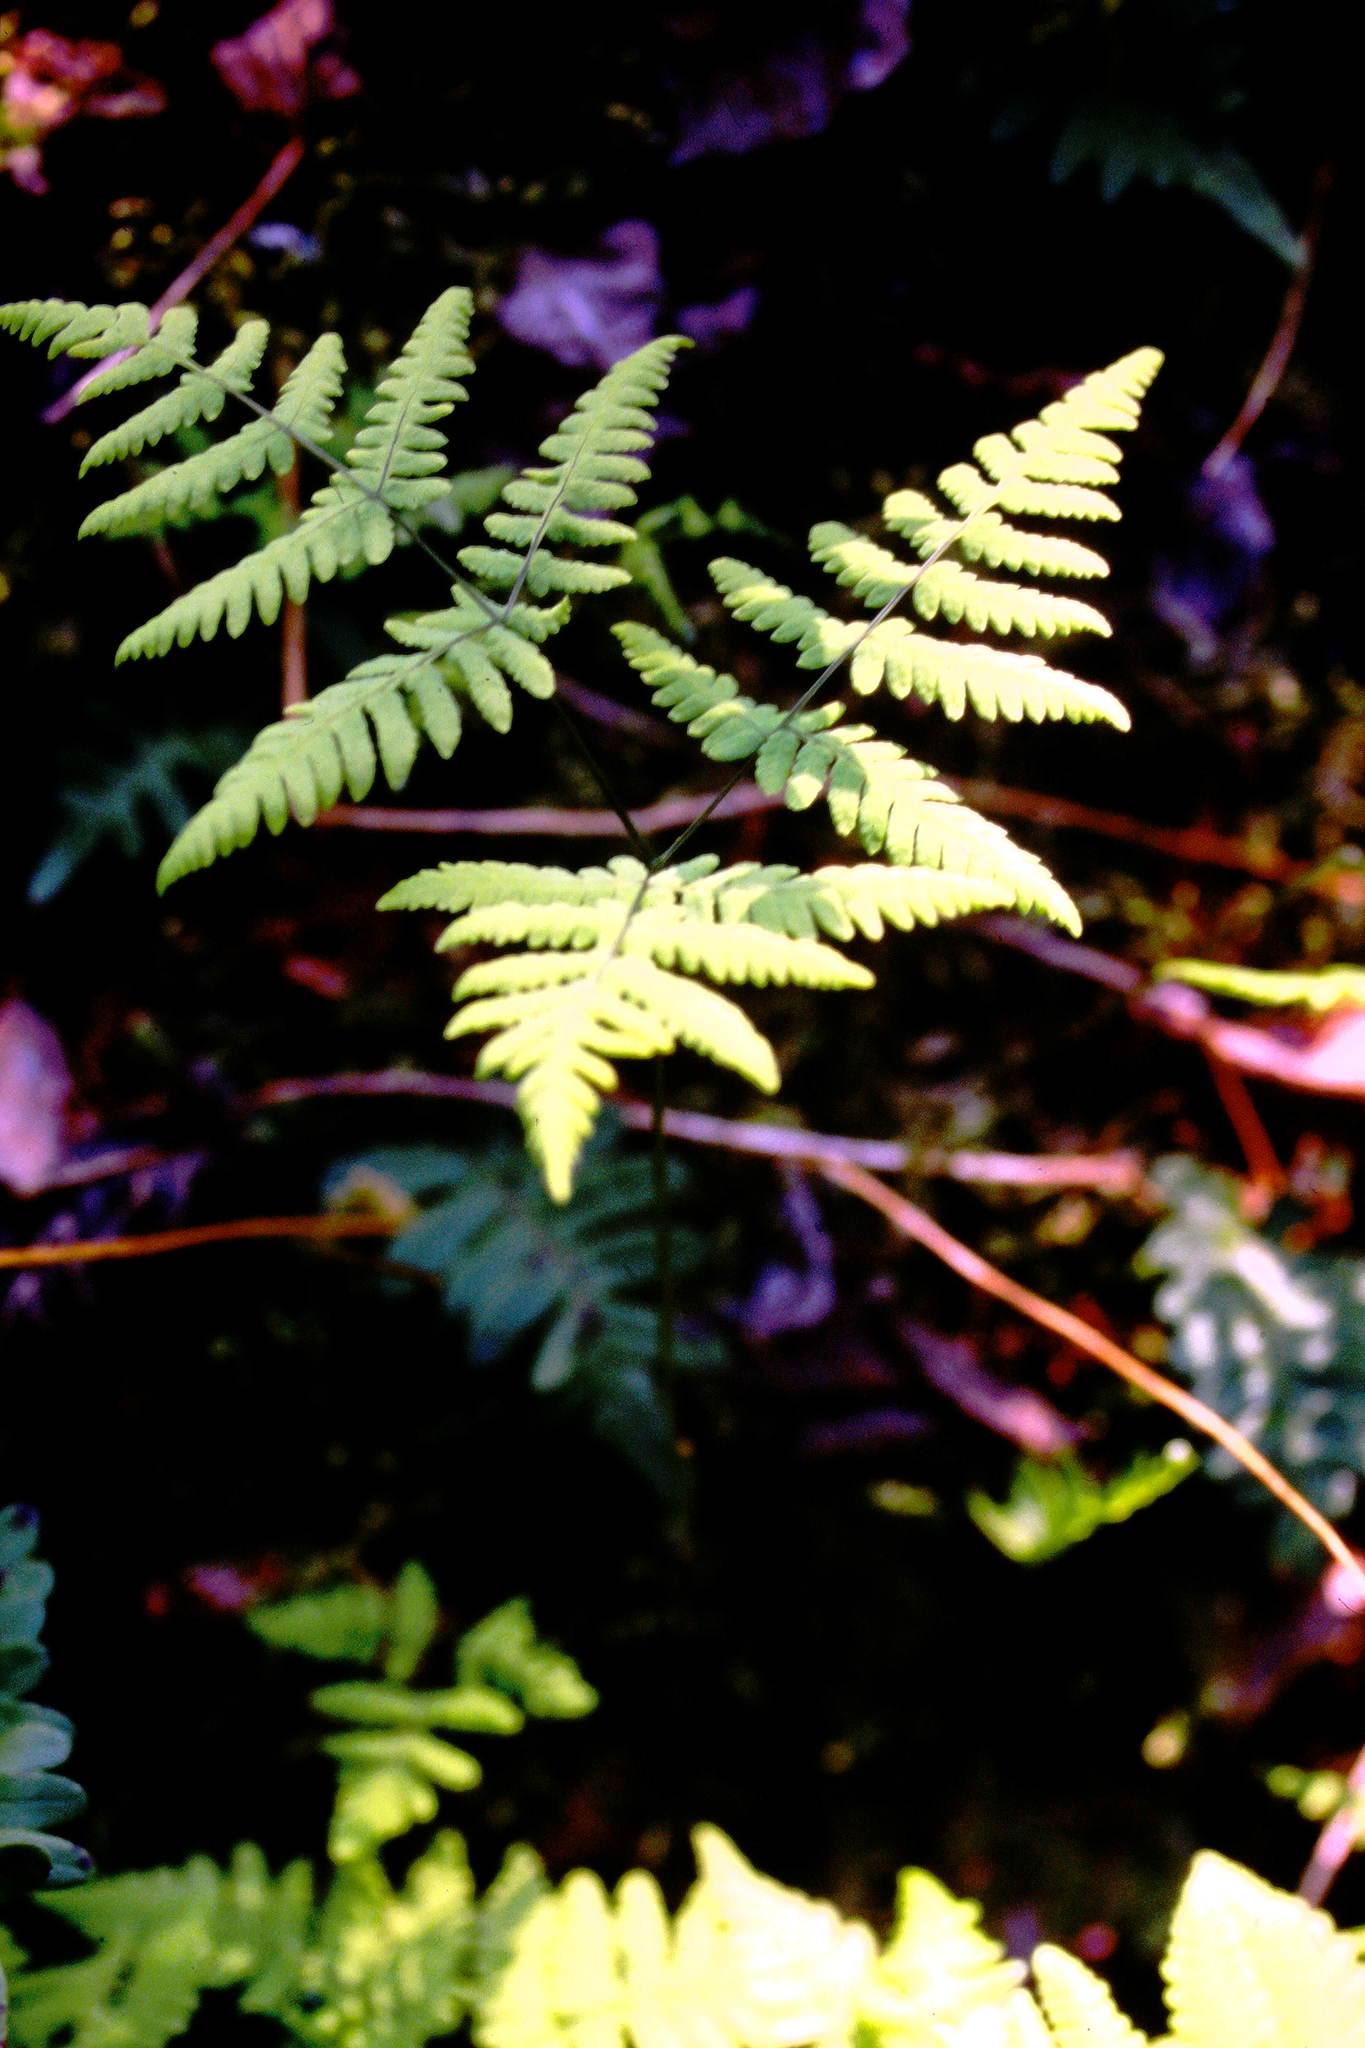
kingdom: Plantae
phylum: Tracheophyta
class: Polypodiopsida
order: Polypodiales
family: Cystopteridaceae
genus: Gymnocarpium
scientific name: Gymnocarpium dryopteris
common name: Oak fern
